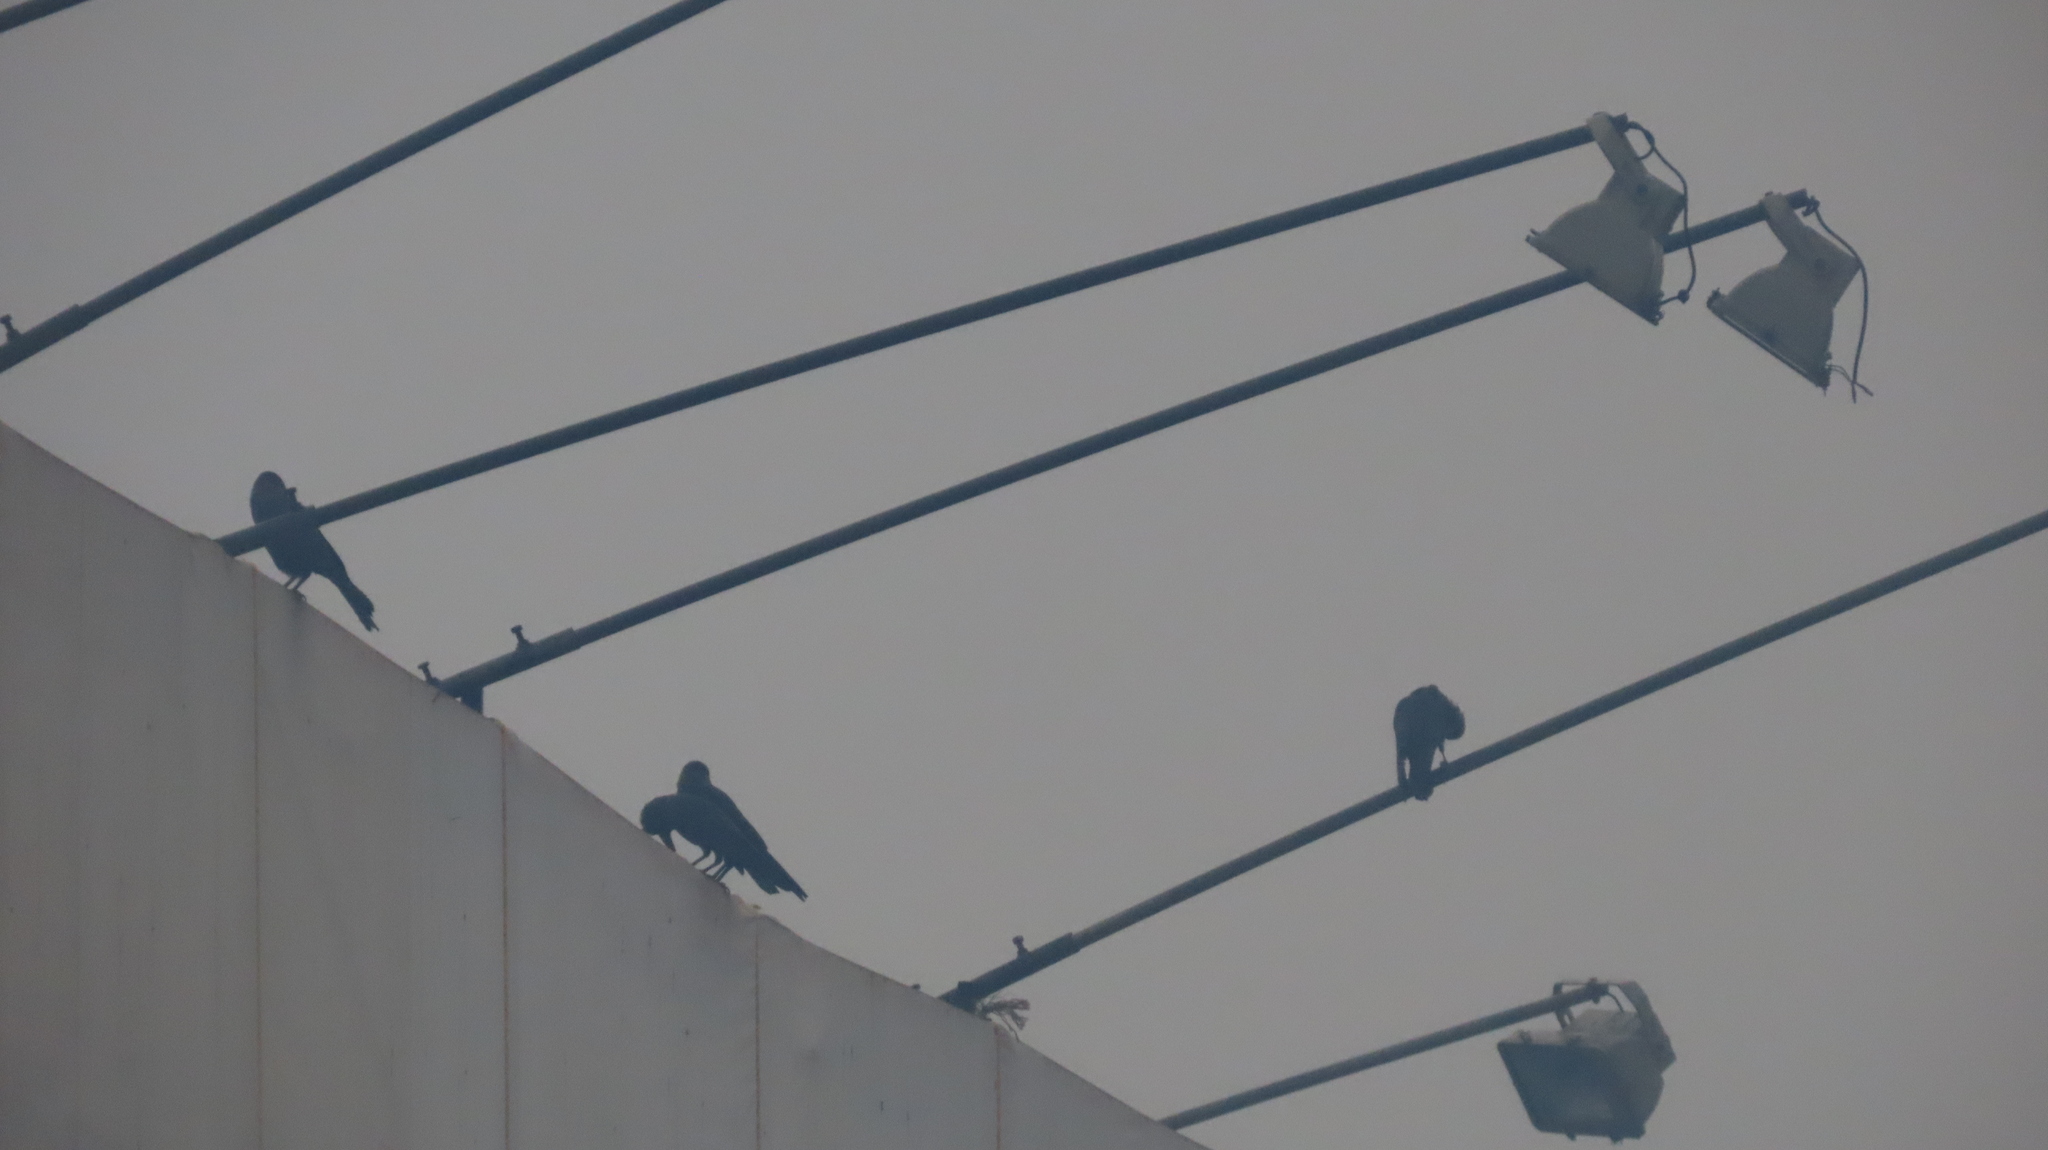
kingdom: Animalia
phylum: Chordata
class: Aves
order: Passeriformes
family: Corvidae
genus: Corvus
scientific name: Corvus splendens
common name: House crow
